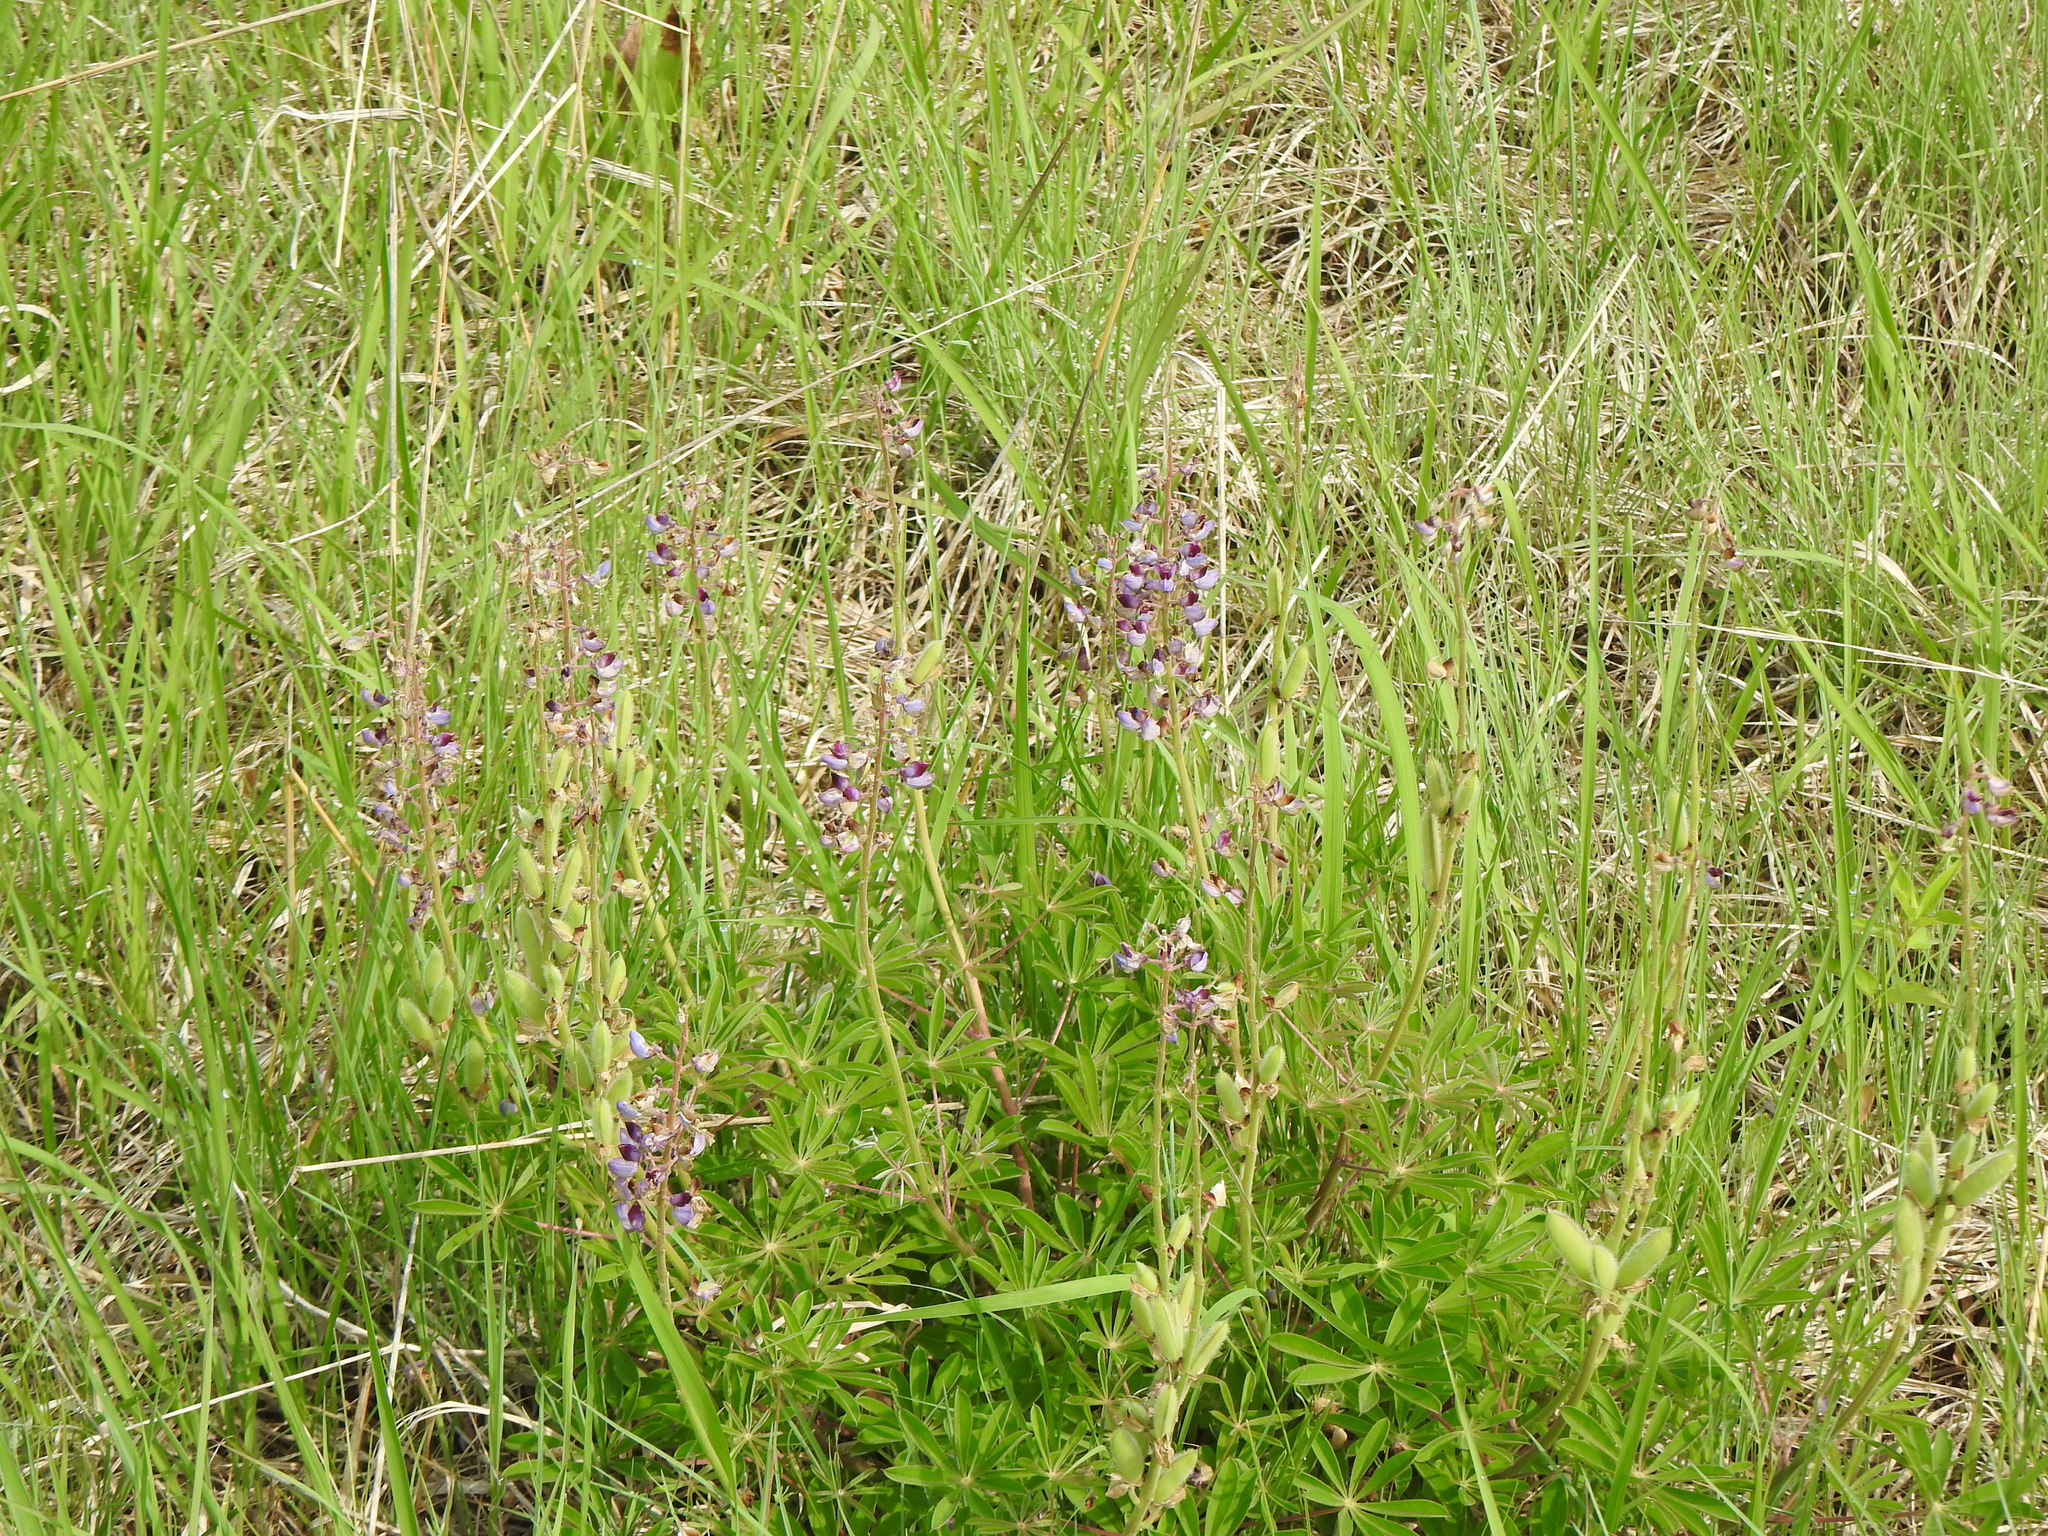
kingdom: Plantae
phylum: Tracheophyta
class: Magnoliopsida
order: Fabales
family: Fabaceae
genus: Lupinus
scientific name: Lupinus perennis
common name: Sundial lupine
